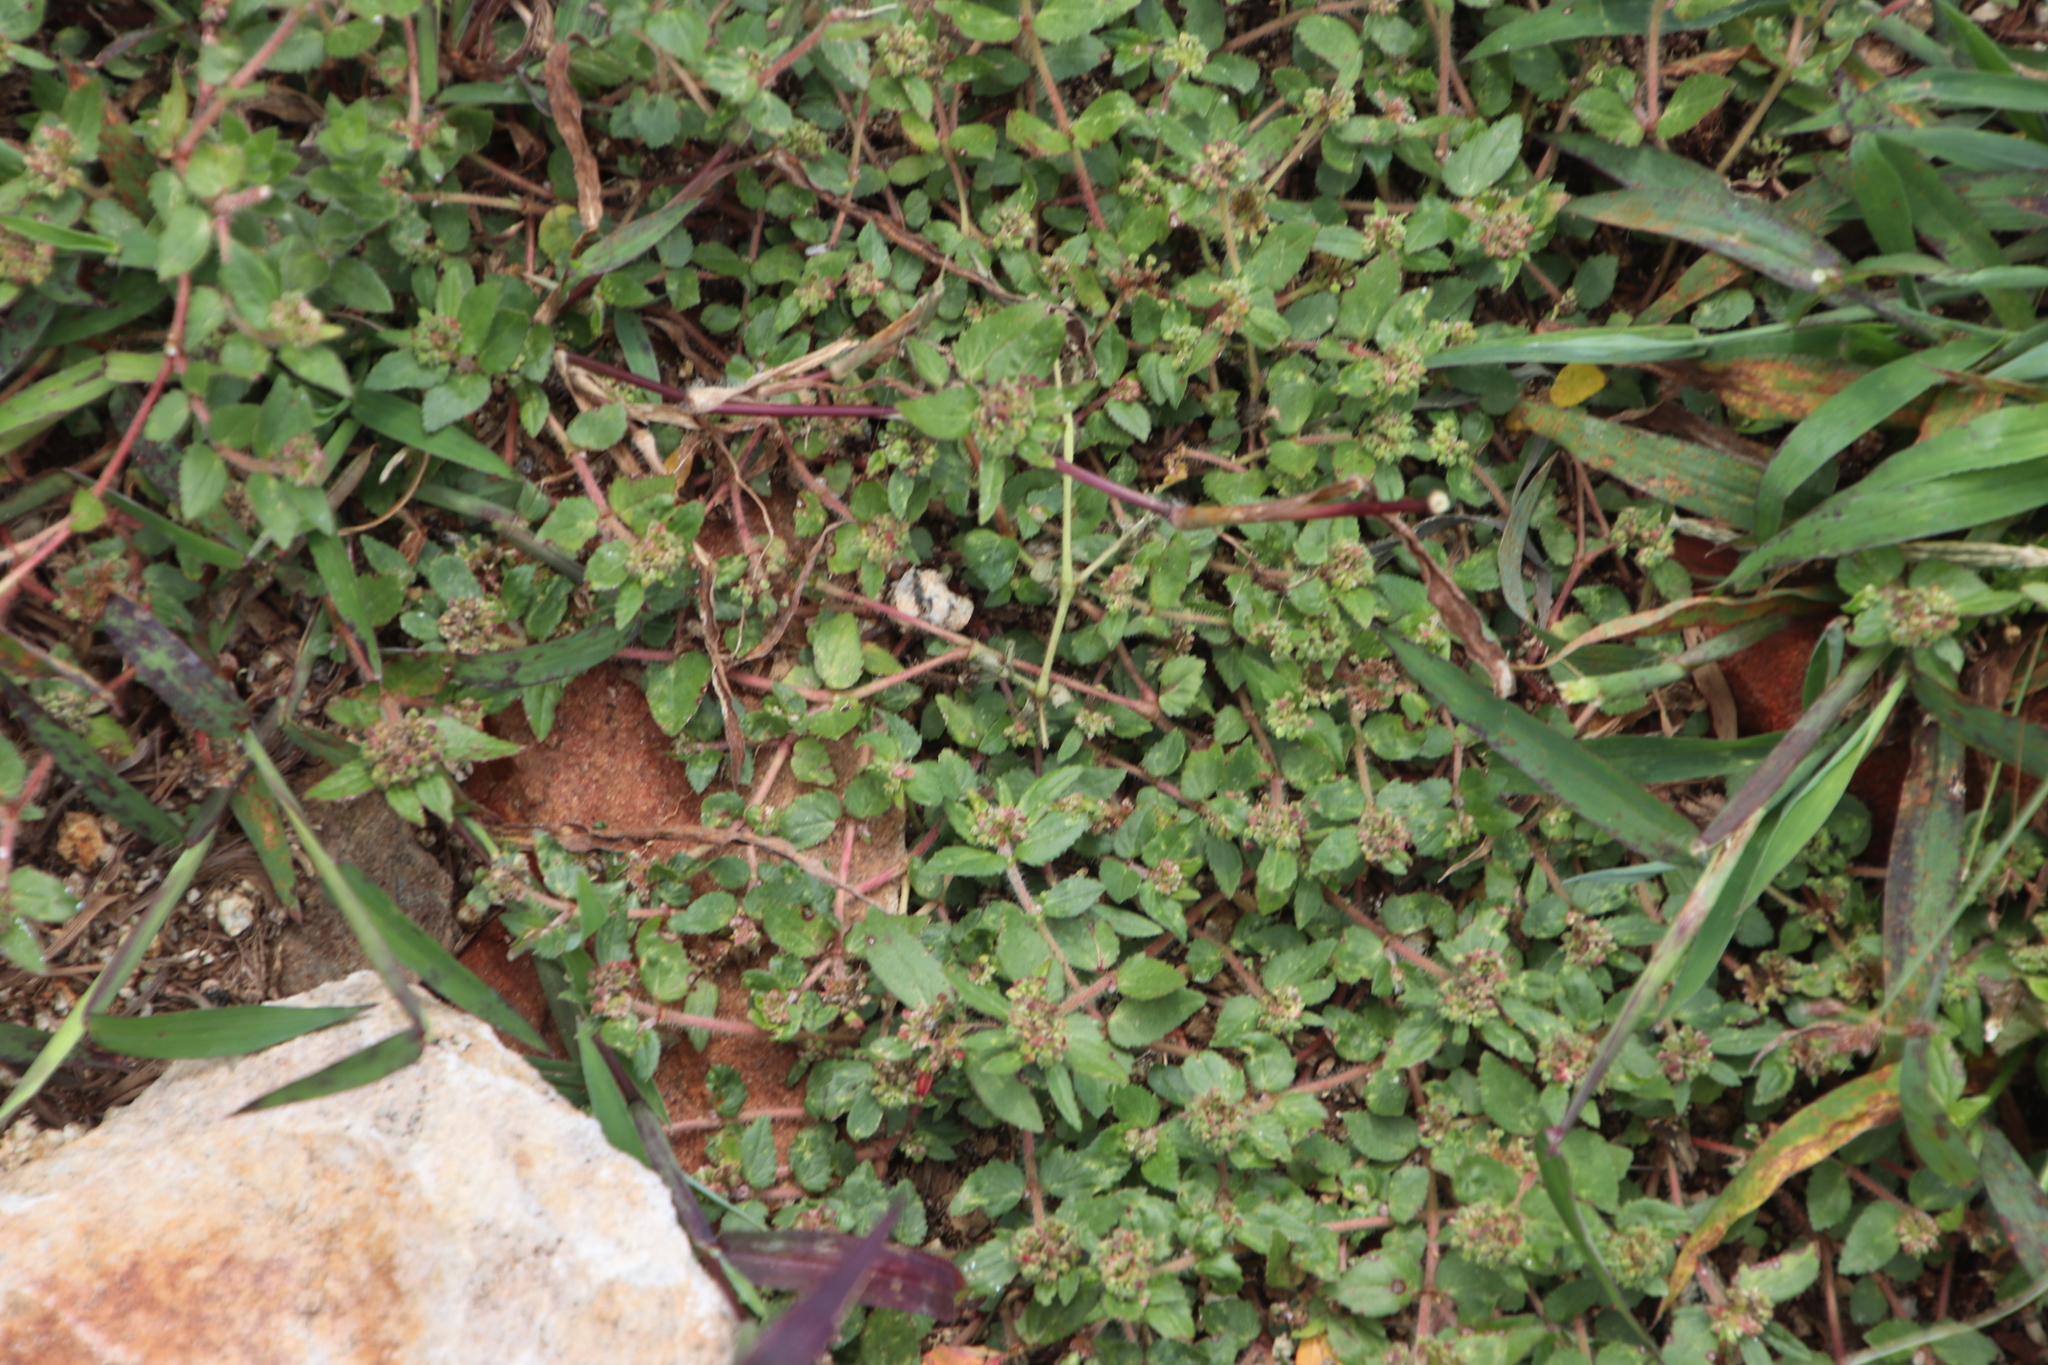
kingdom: Plantae
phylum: Tracheophyta
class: Magnoliopsida
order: Malpighiales
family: Euphorbiaceae
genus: Euphorbia
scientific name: Euphorbia ophthalmica
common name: Florida hammock sandmat
